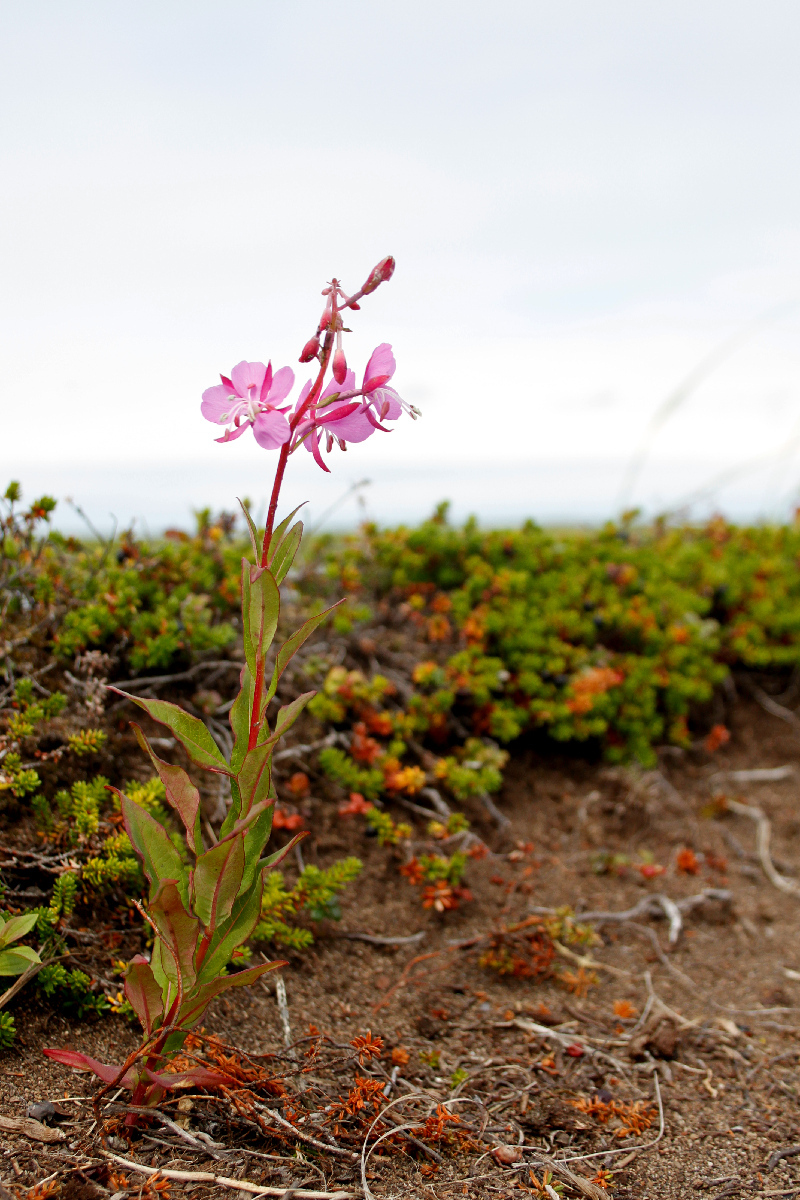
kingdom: Plantae
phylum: Tracheophyta
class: Magnoliopsida
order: Myrtales
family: Onagraceae
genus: Chamaenerion
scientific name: Chamaenerion angustifolium
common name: Fireweed
